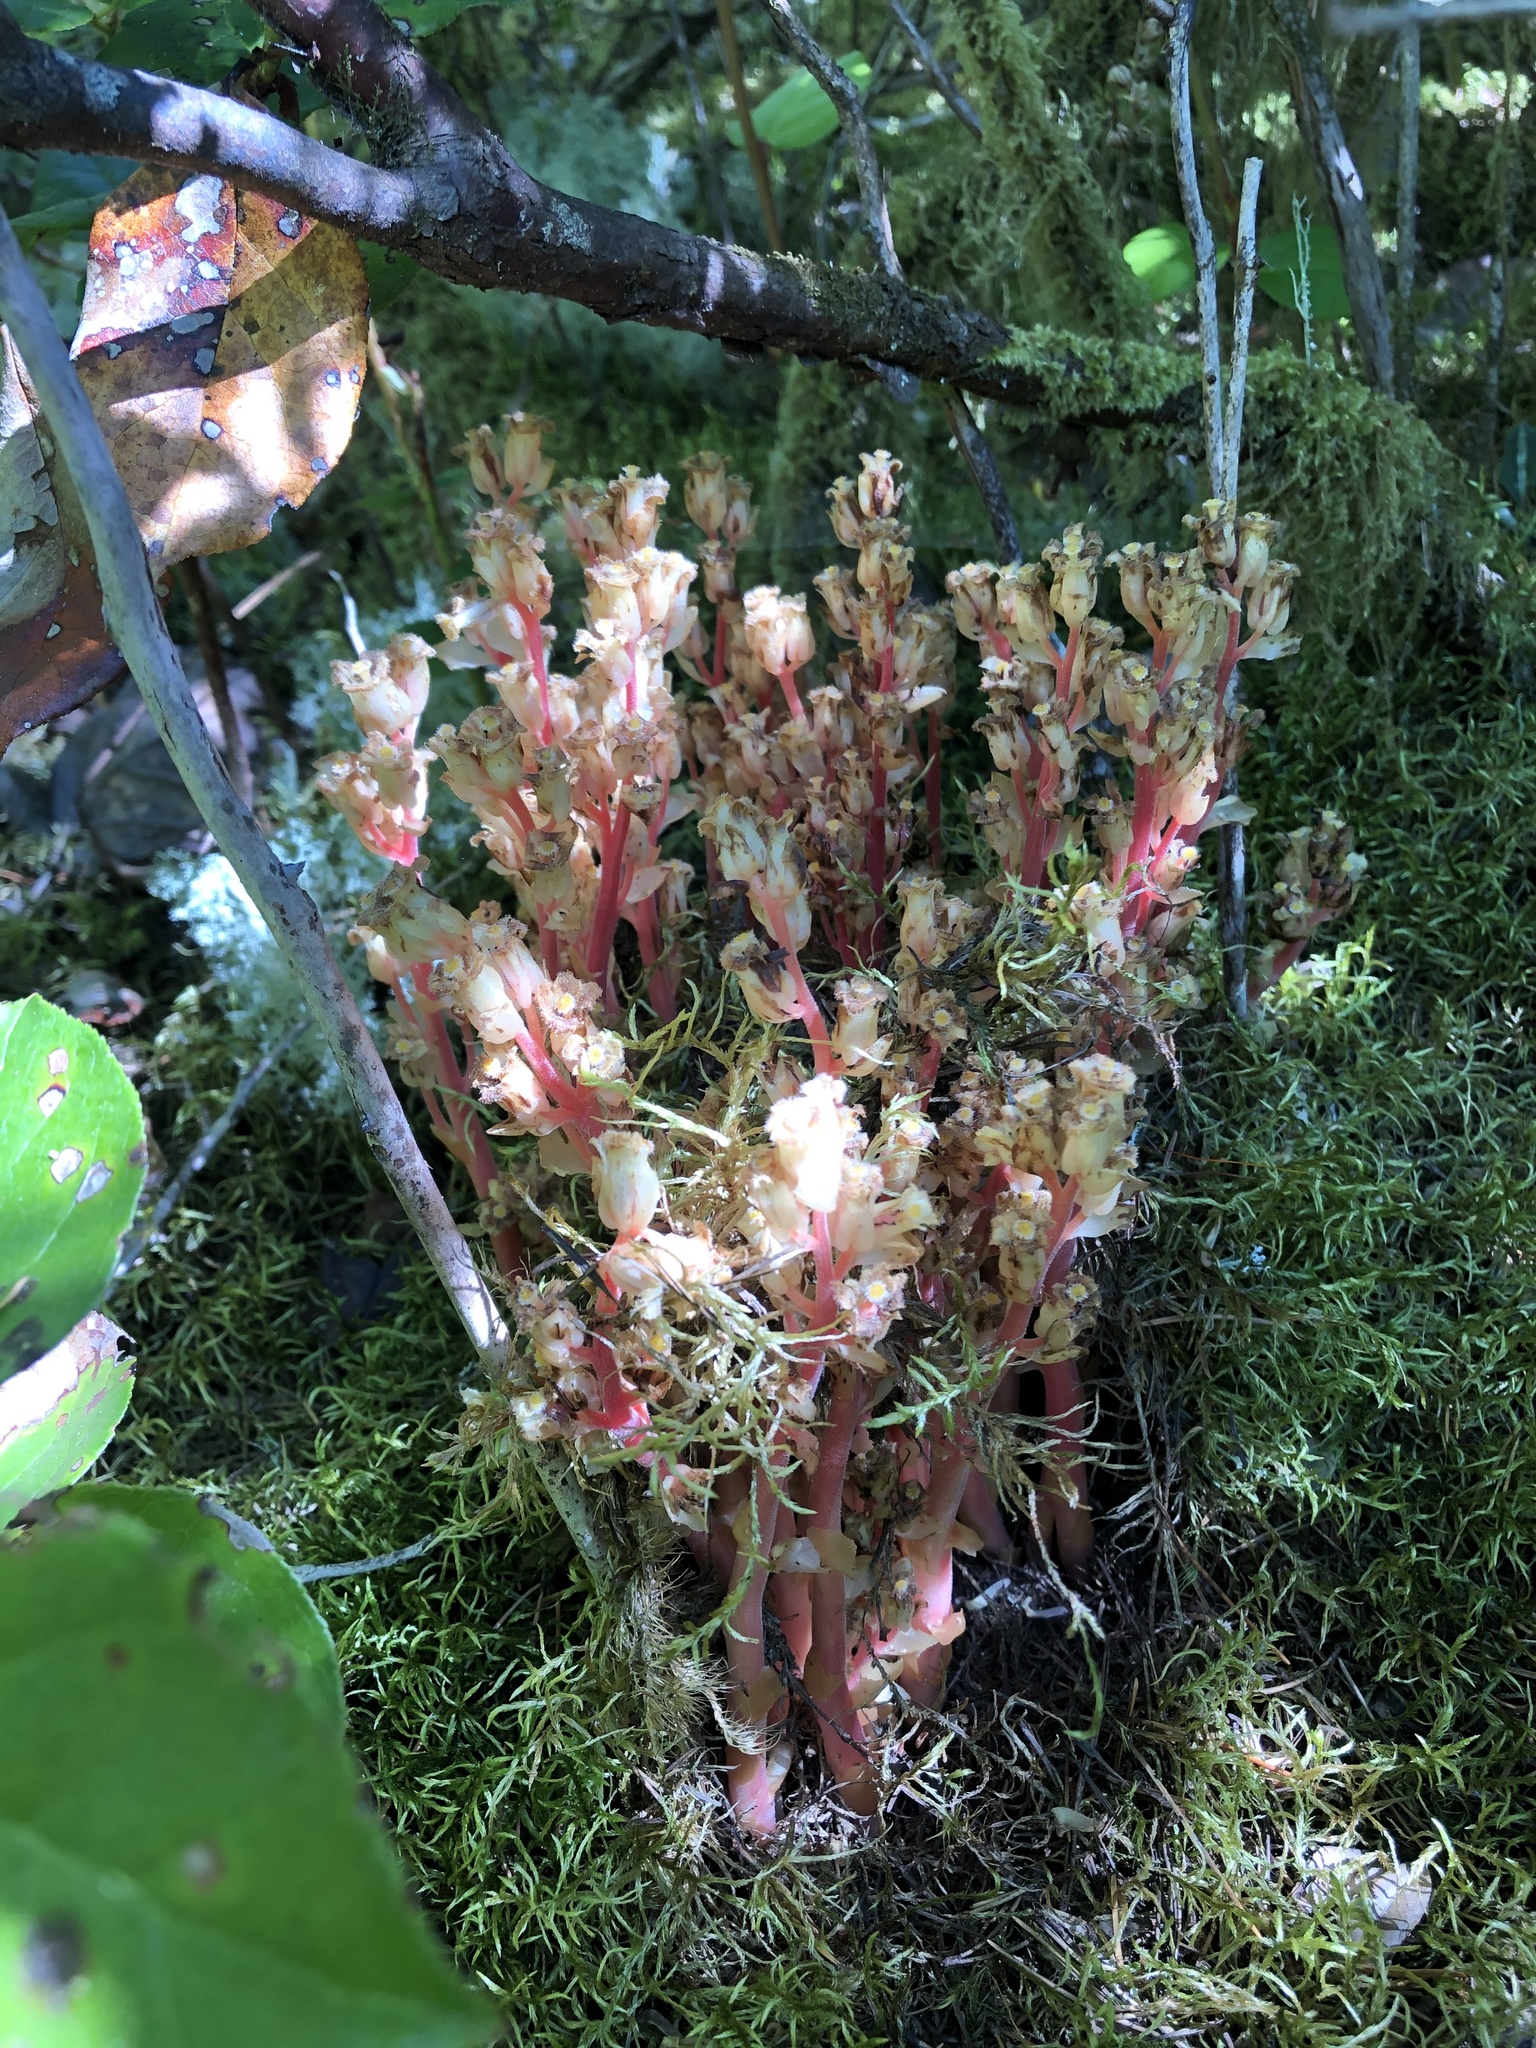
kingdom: Plantae
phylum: Tracheophyta
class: Magnoliopsida
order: Ericales
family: Ericaceae
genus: Hypopitys
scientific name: Hypopitys monotropa
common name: Yellow bird's-nest
